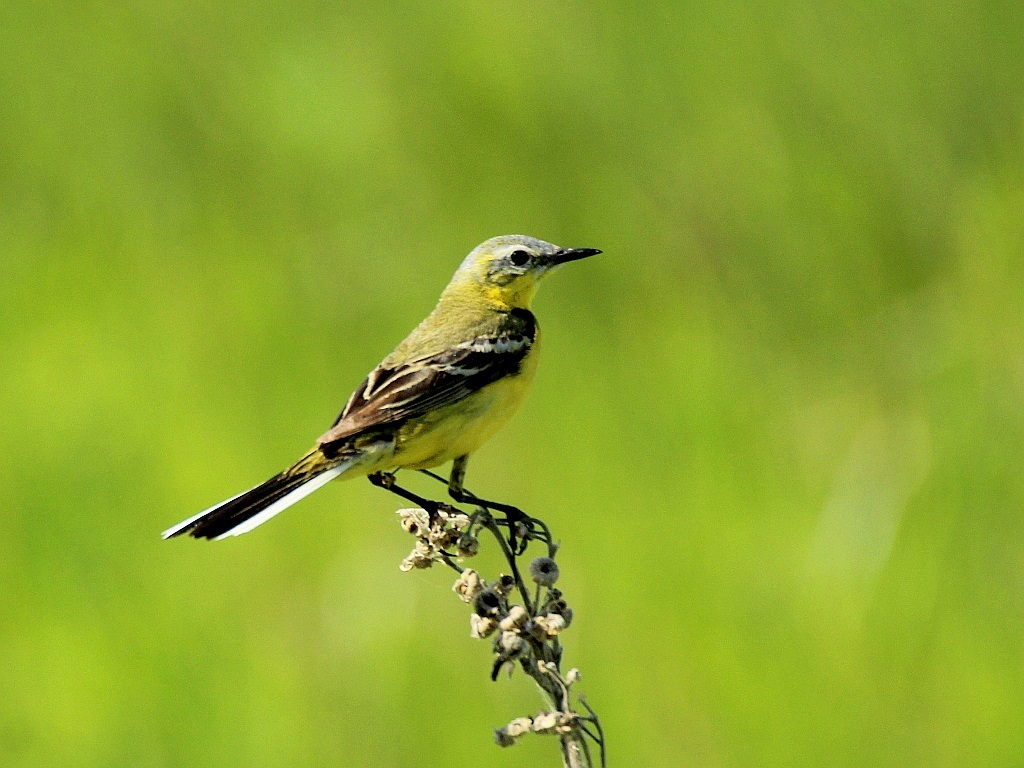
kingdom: Animalia
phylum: Chordata
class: Aves
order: Passeriformes
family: Motacillidae
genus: Motacilla
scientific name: Motacilla flava
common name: Western yellow wagtail
